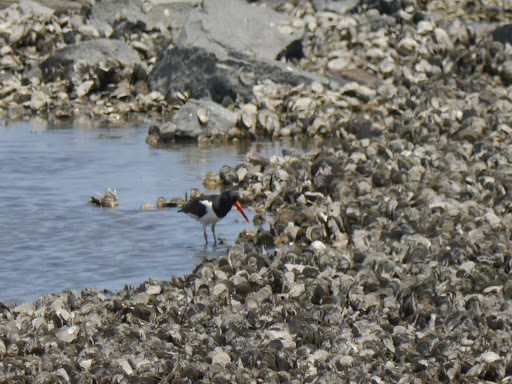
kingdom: Animalia
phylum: Chordata
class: Aves
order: Charadriiformes
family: Haematopodidae
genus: Haematopus
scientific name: Haematopus palliatus
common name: American oystercatcher
